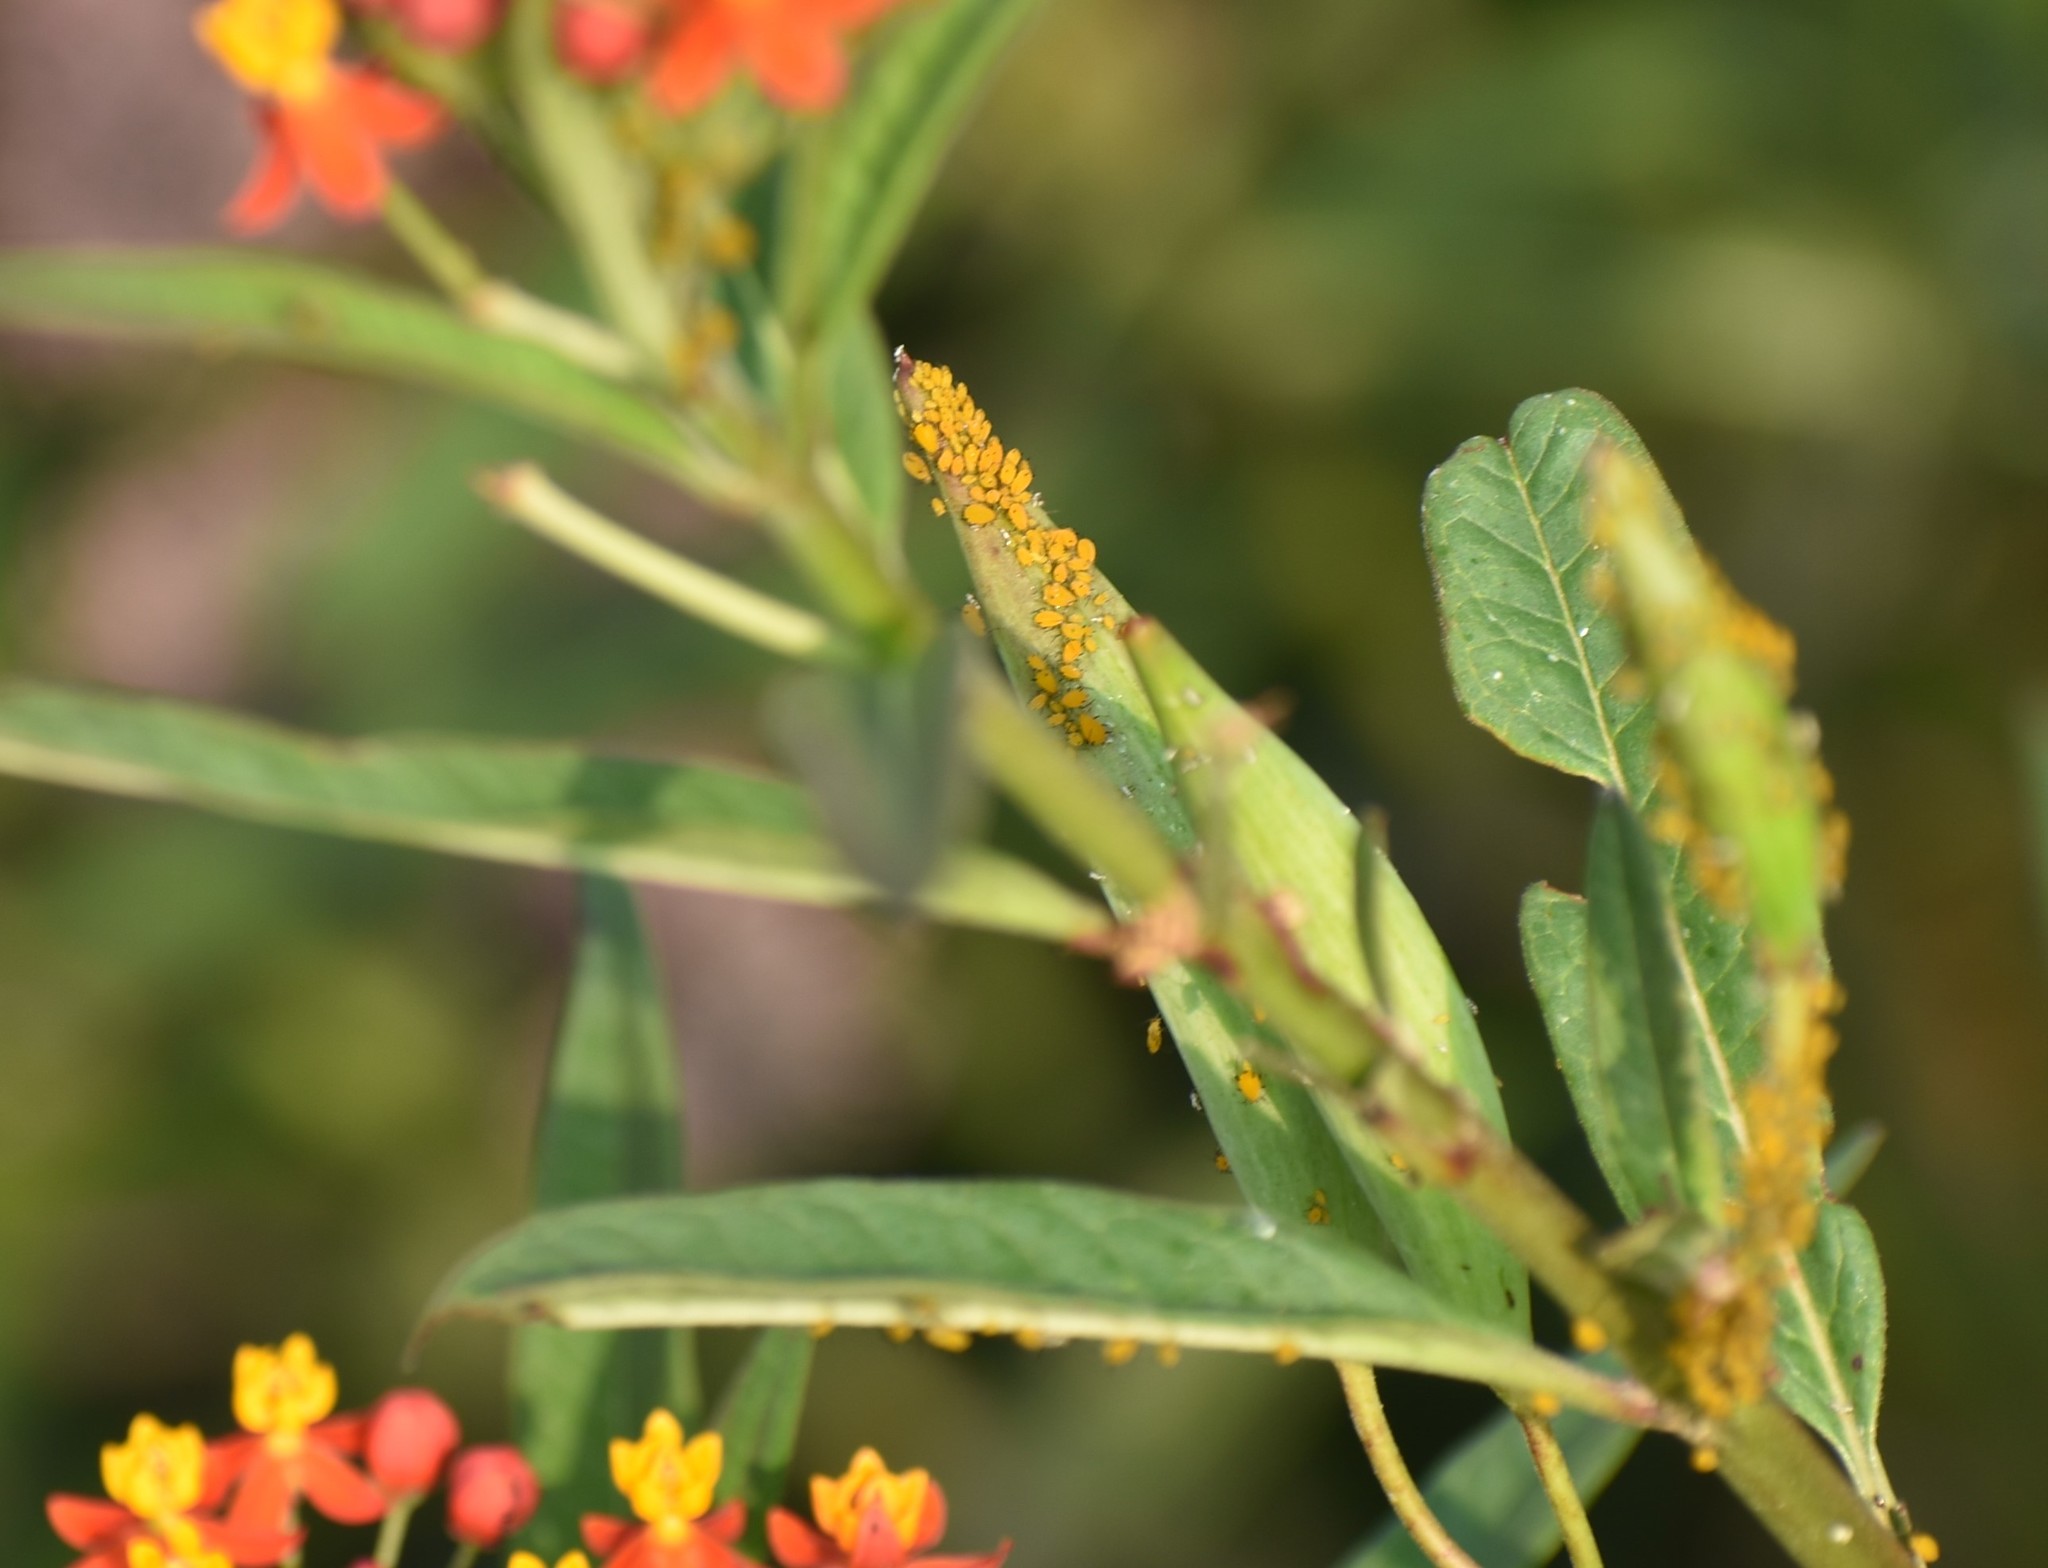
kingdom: Animalia
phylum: Arthropoda
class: Insecta
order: Hemiptera
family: Aphididae
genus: Aphis
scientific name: Aphis nerii
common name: Oleander aphid
